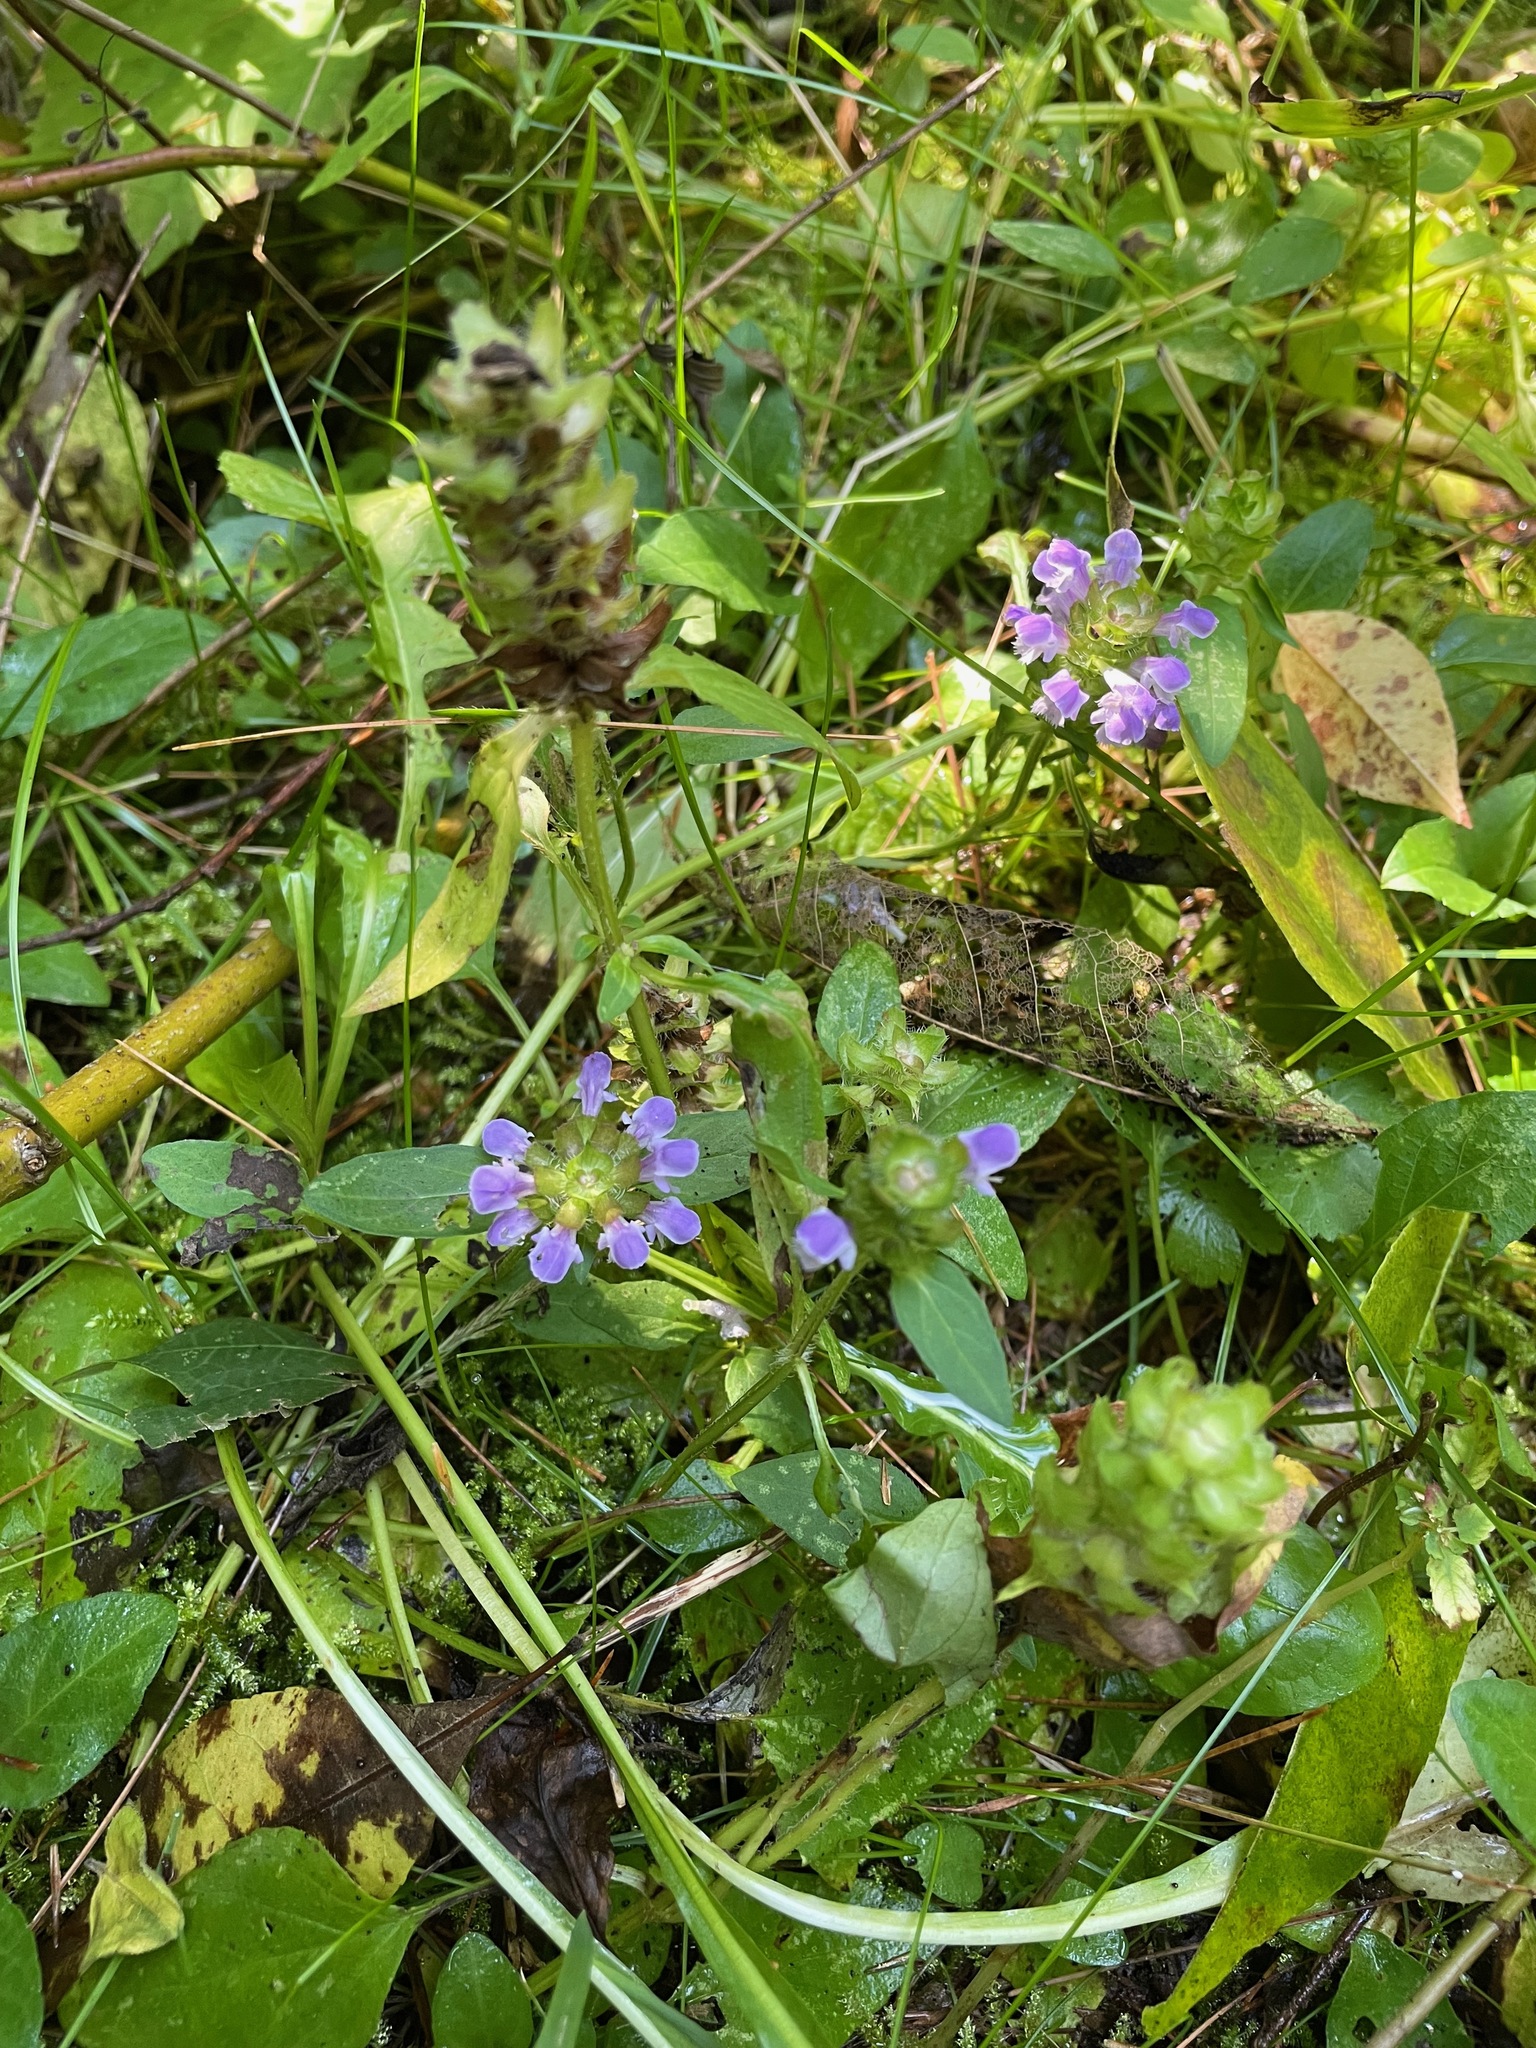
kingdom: Plantae
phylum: Tracheophyta
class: Magnoliopsida
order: Lamiales
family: Lamiaceae
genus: Prunella
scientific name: Prunella vulgaris
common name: Heal-all
